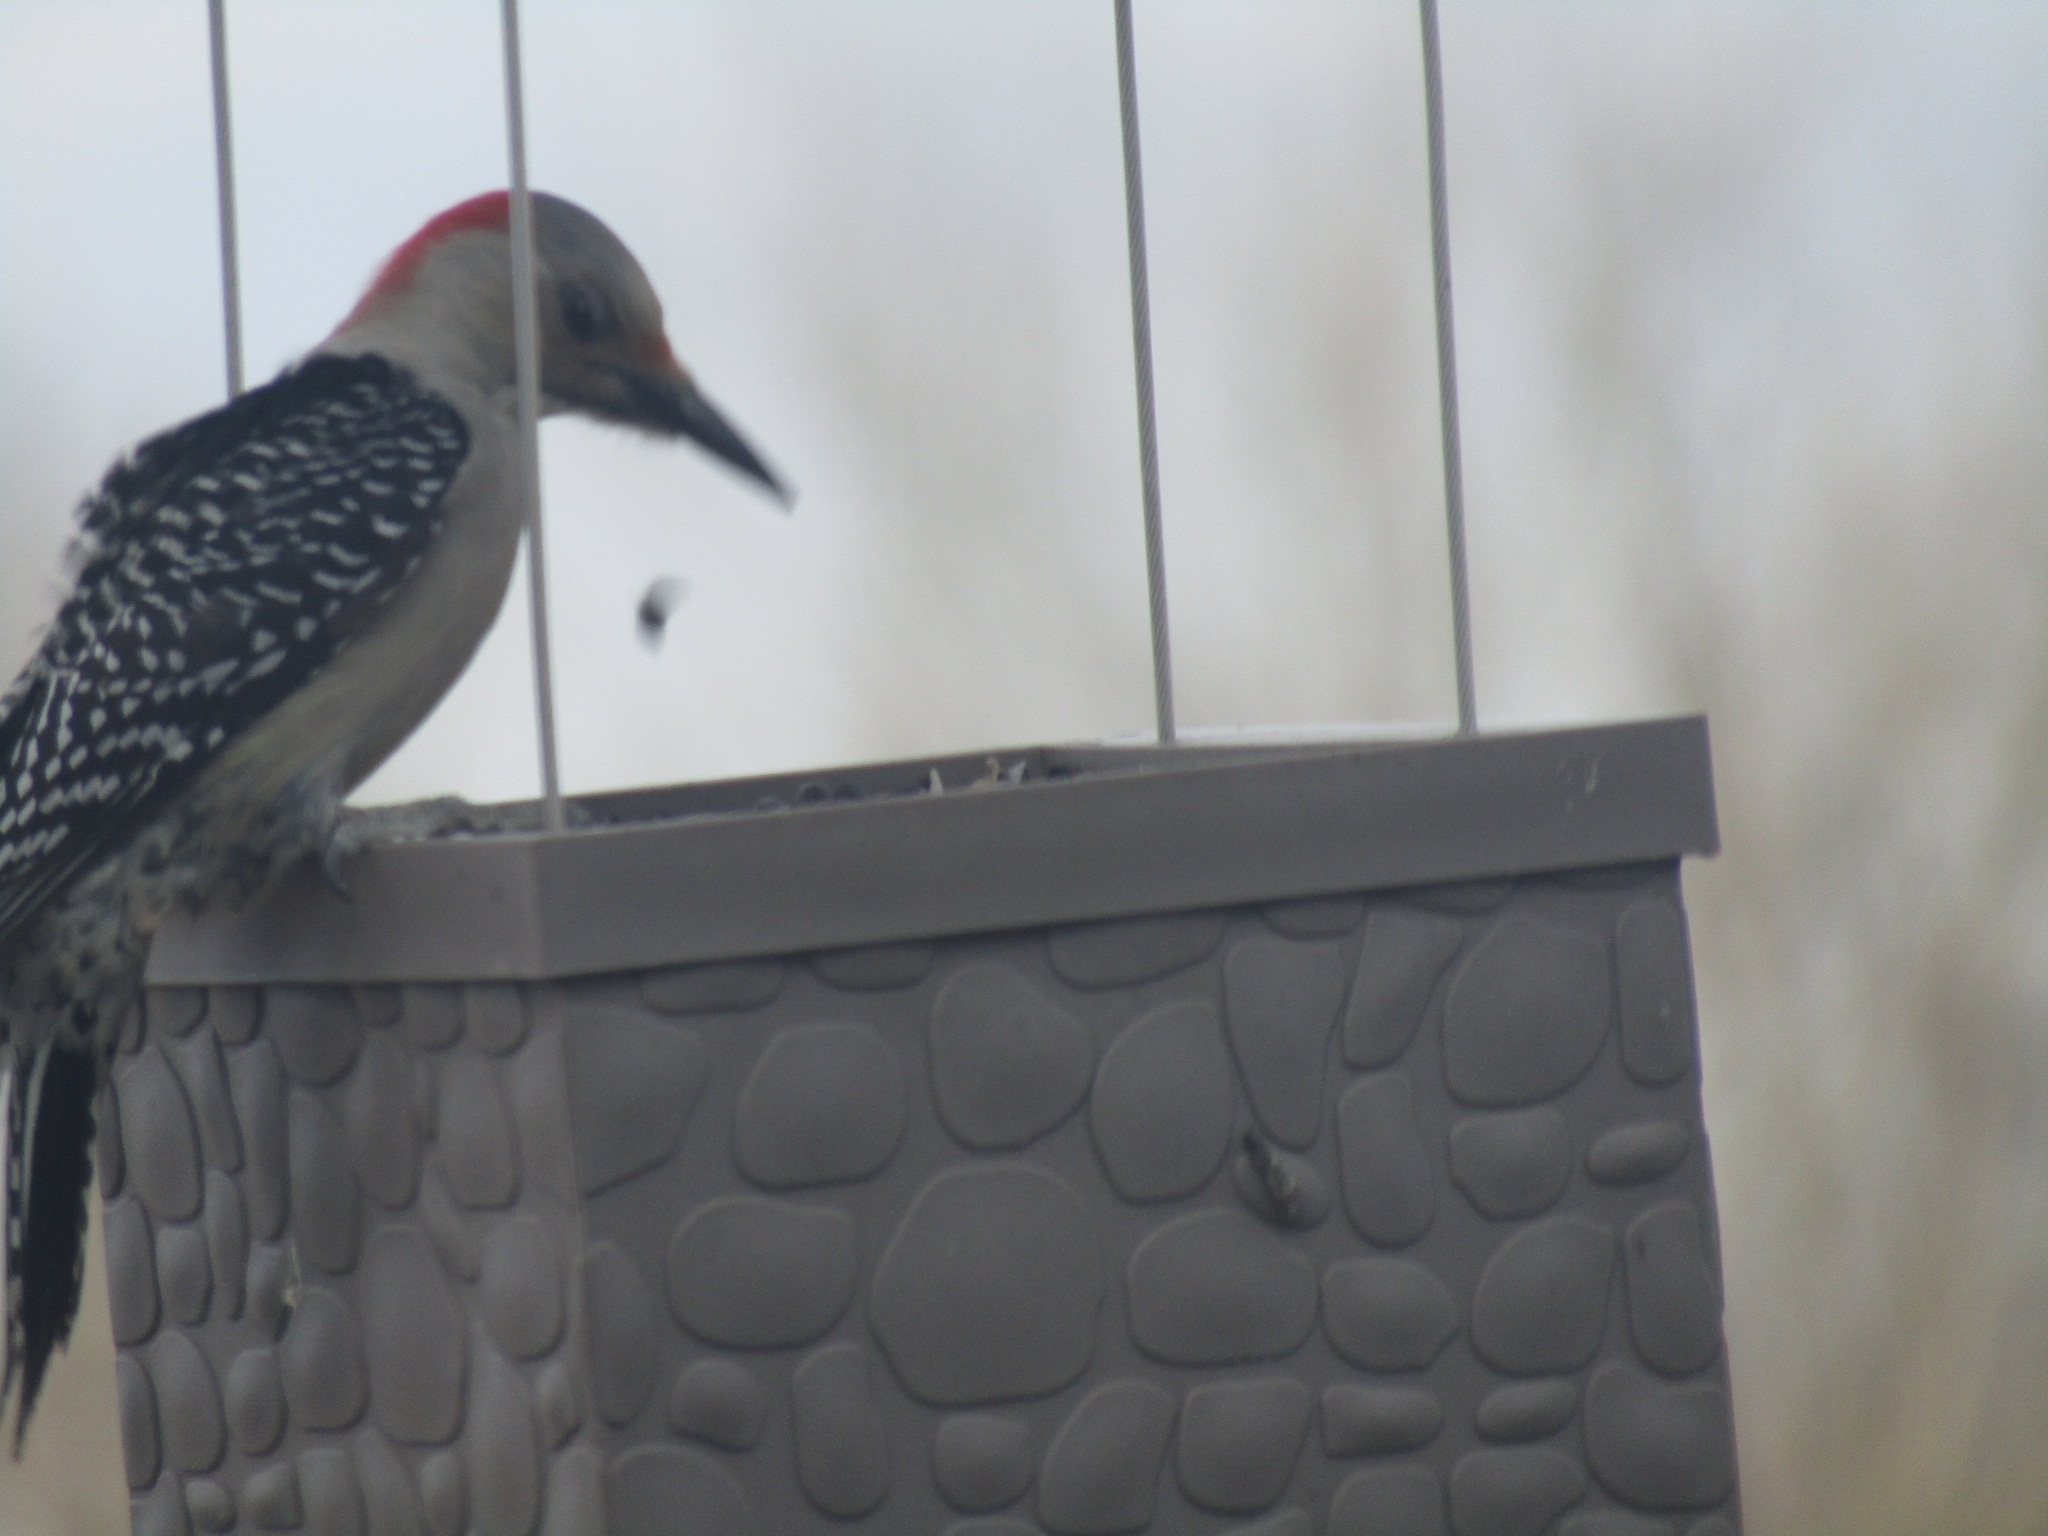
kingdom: Animalia
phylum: Chordata
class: Aves
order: Piciformes
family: Picidae
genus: Melanerpes
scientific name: Melanerpes carolinus
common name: Red-bellied woodpecker
